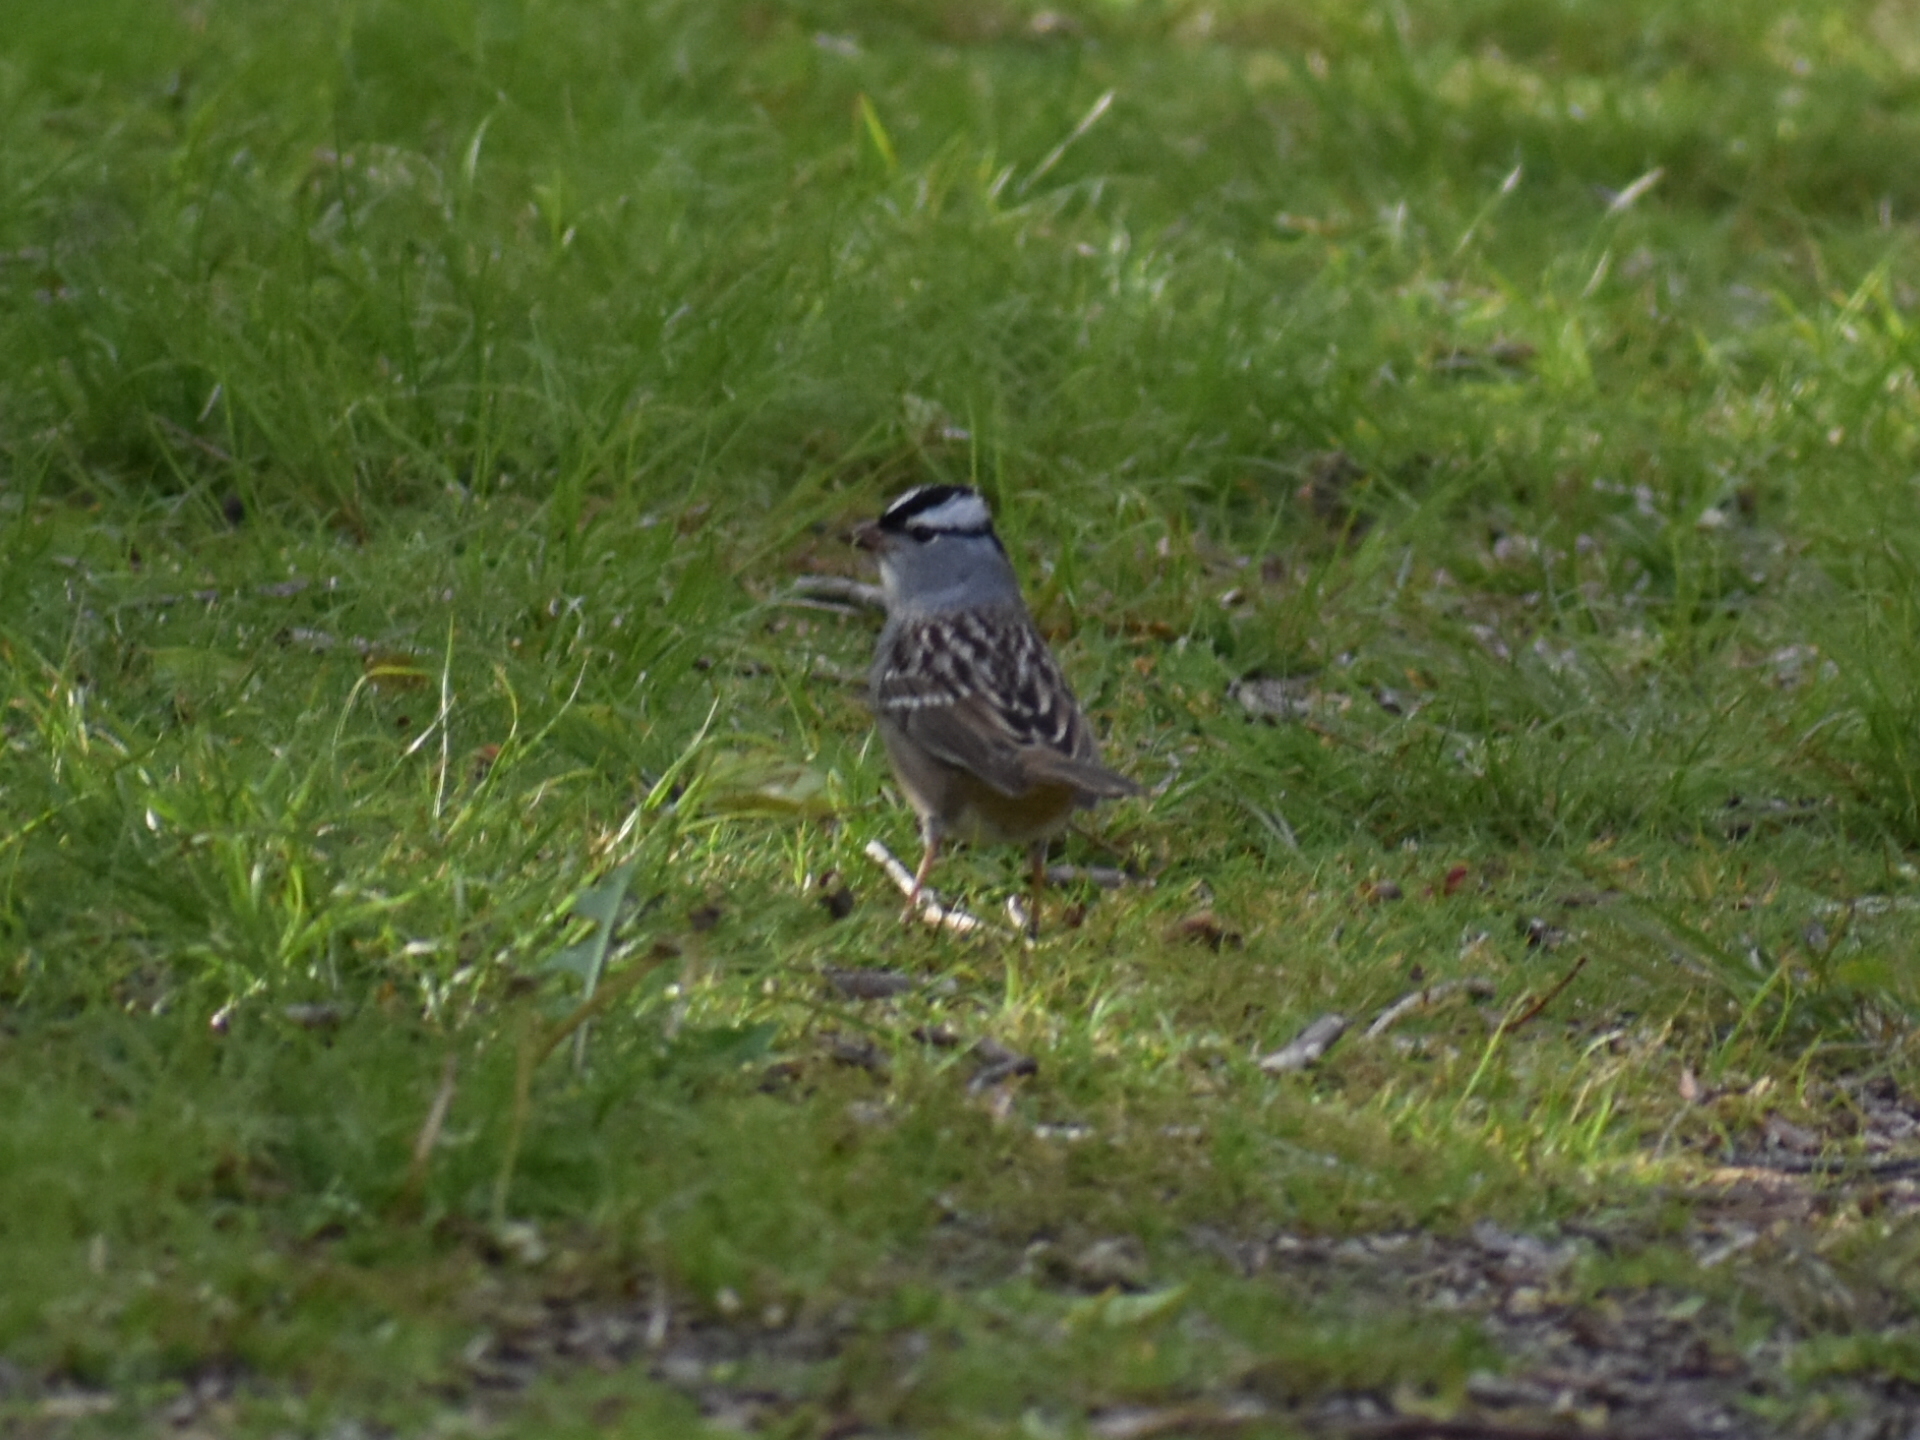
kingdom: Animalia
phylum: Chordata
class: Aves
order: Passeriformes
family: Passerellidae
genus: Zonotrichia
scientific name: Zonotrichia leucophrys
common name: White-crowned sparrow
